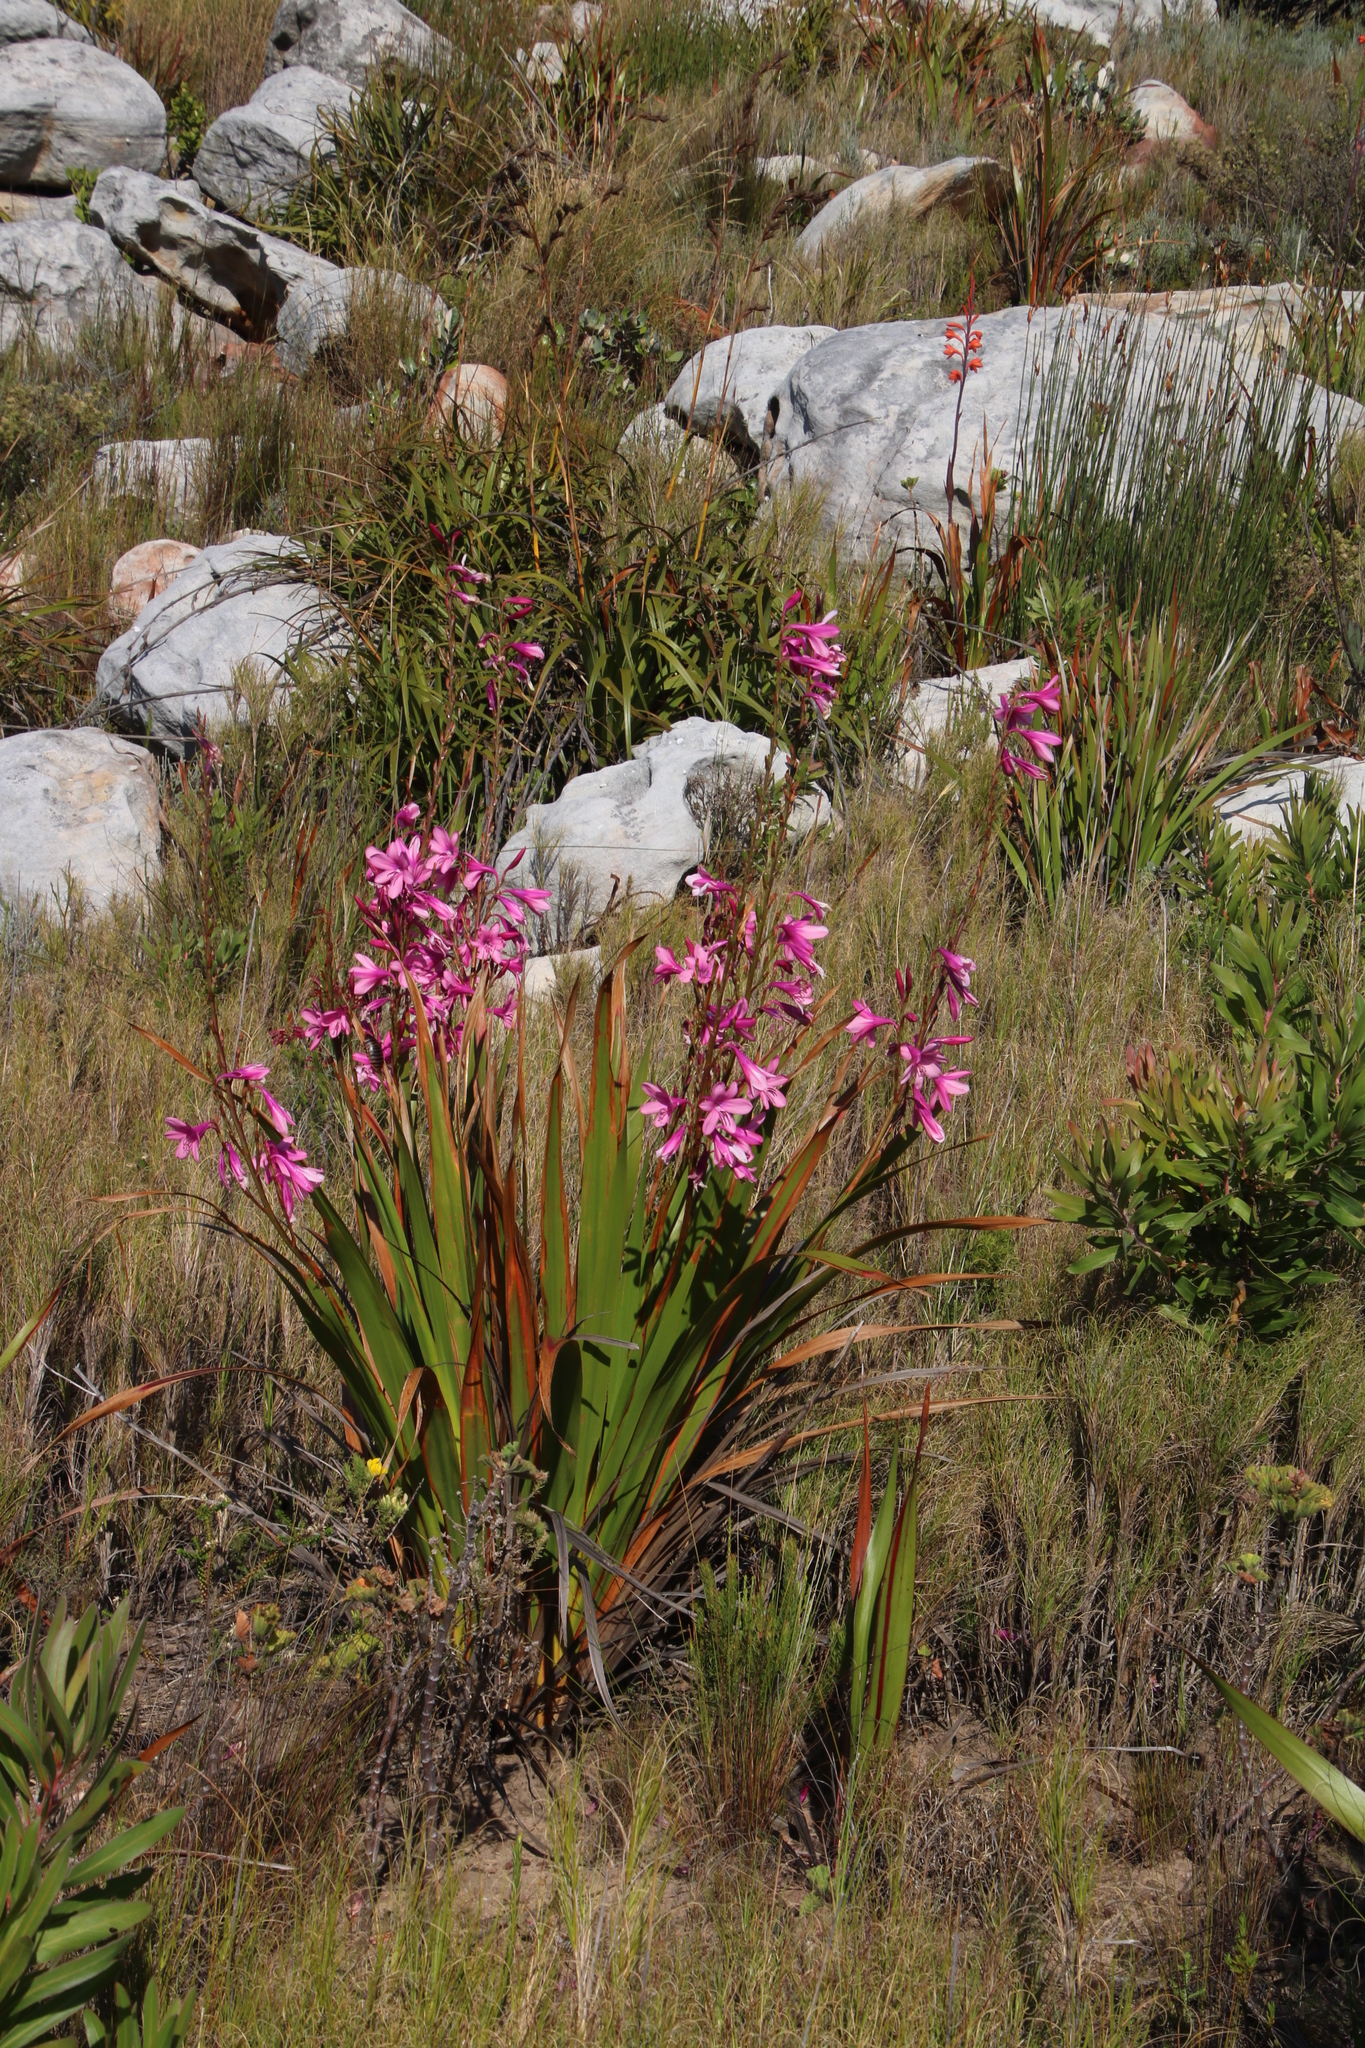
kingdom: Plantae
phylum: Tracheophyta
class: Liliopsida
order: Asparagales
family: Iridaceae
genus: Watsonia
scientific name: Watsonia borbonica
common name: Bugle-lily
